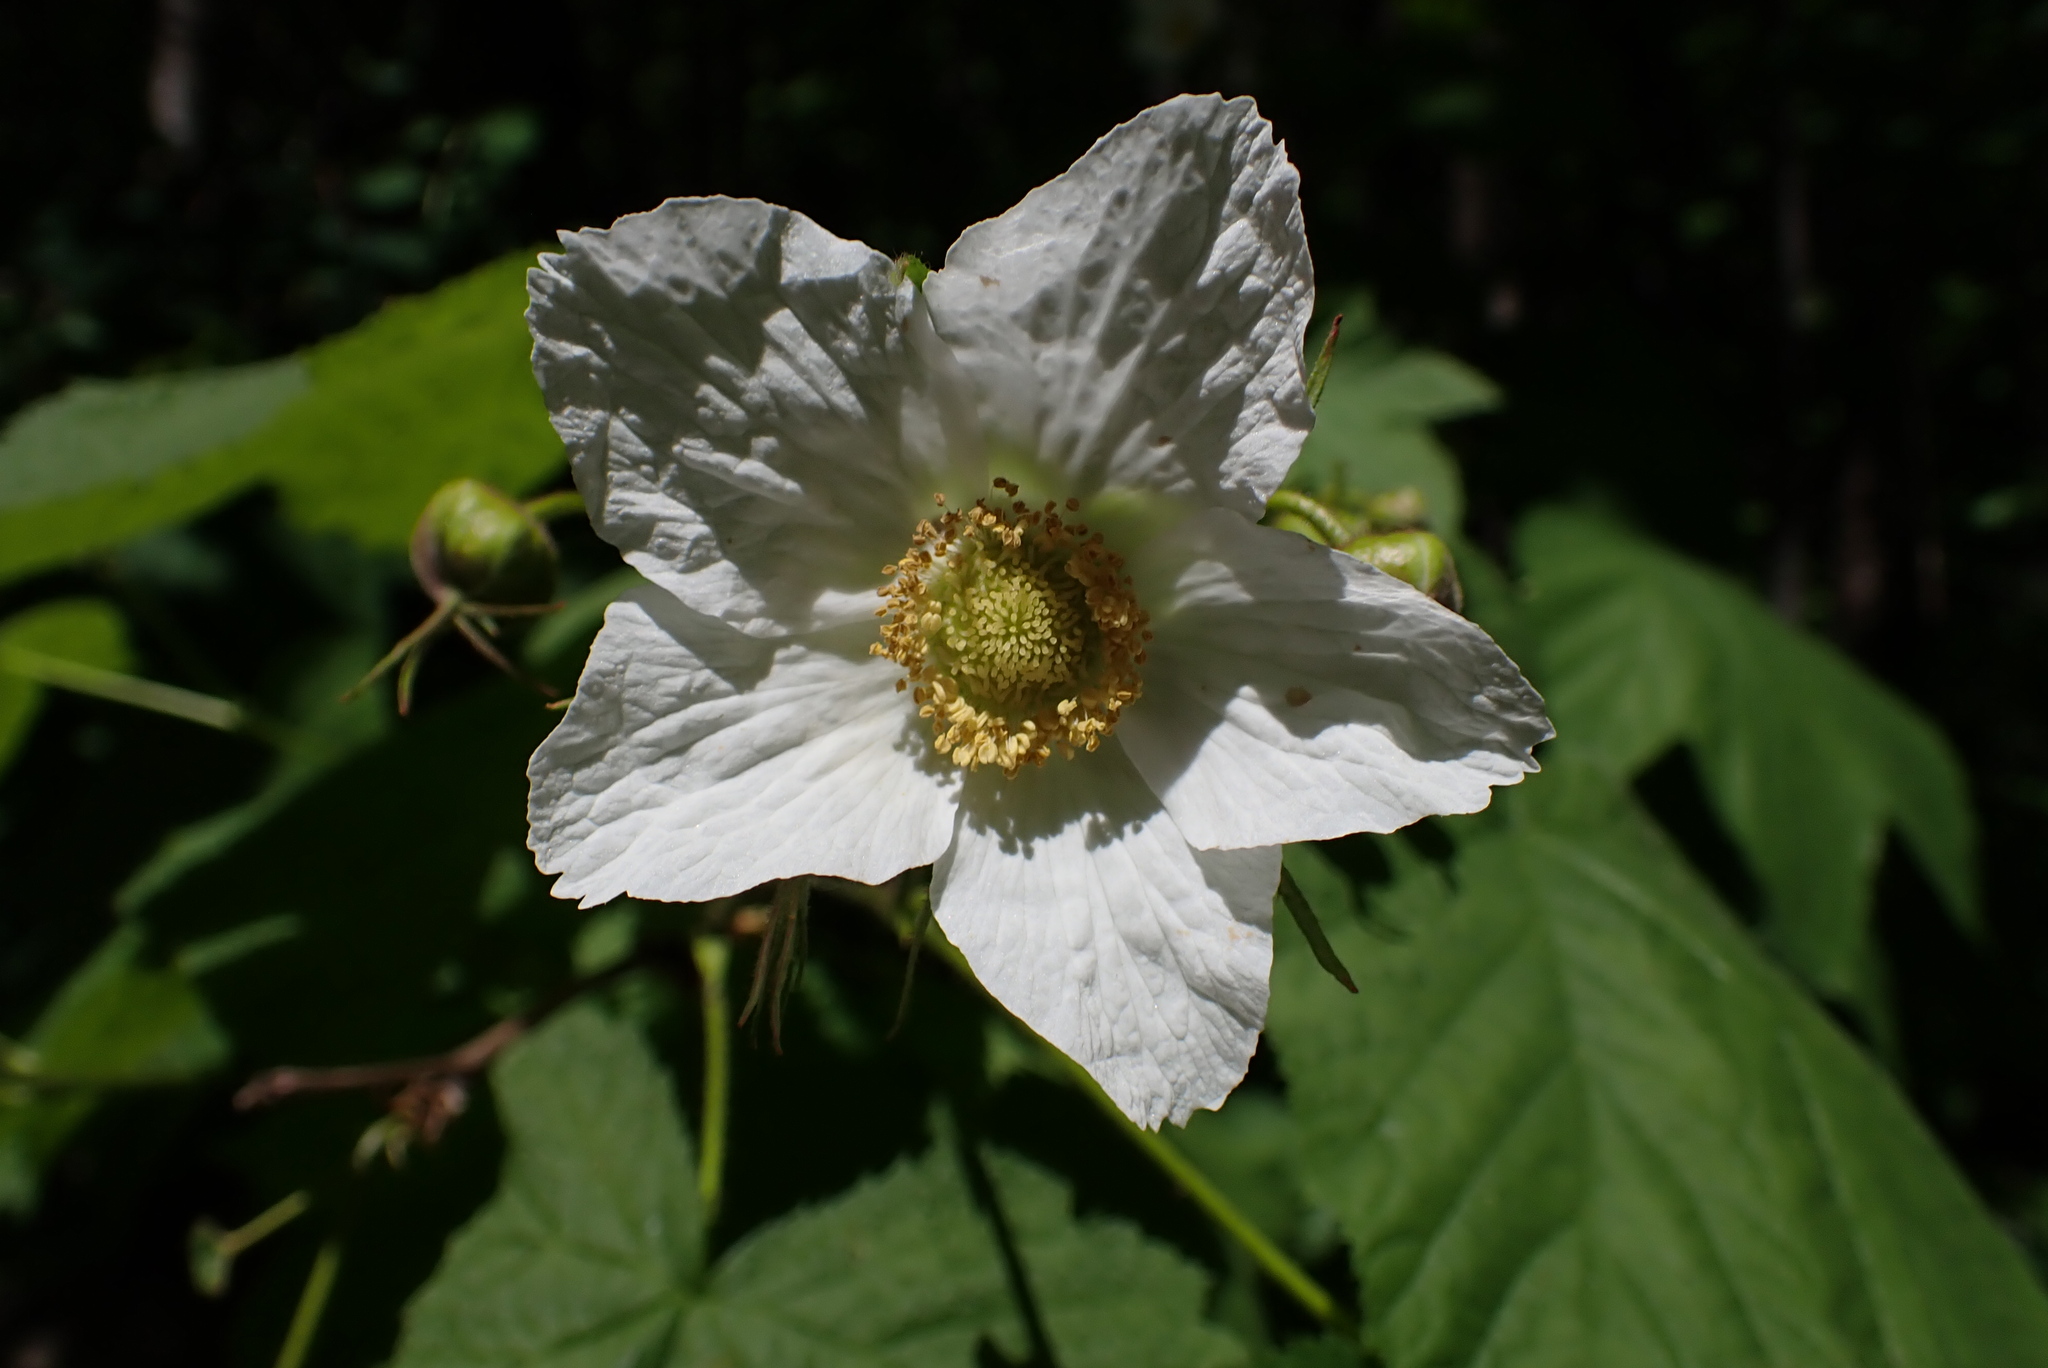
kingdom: Plantae
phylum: Tracheophyta
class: Magnoliopsida
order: Rosales
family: Rosaceae
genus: Rubus
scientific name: Rubus parviflorus
